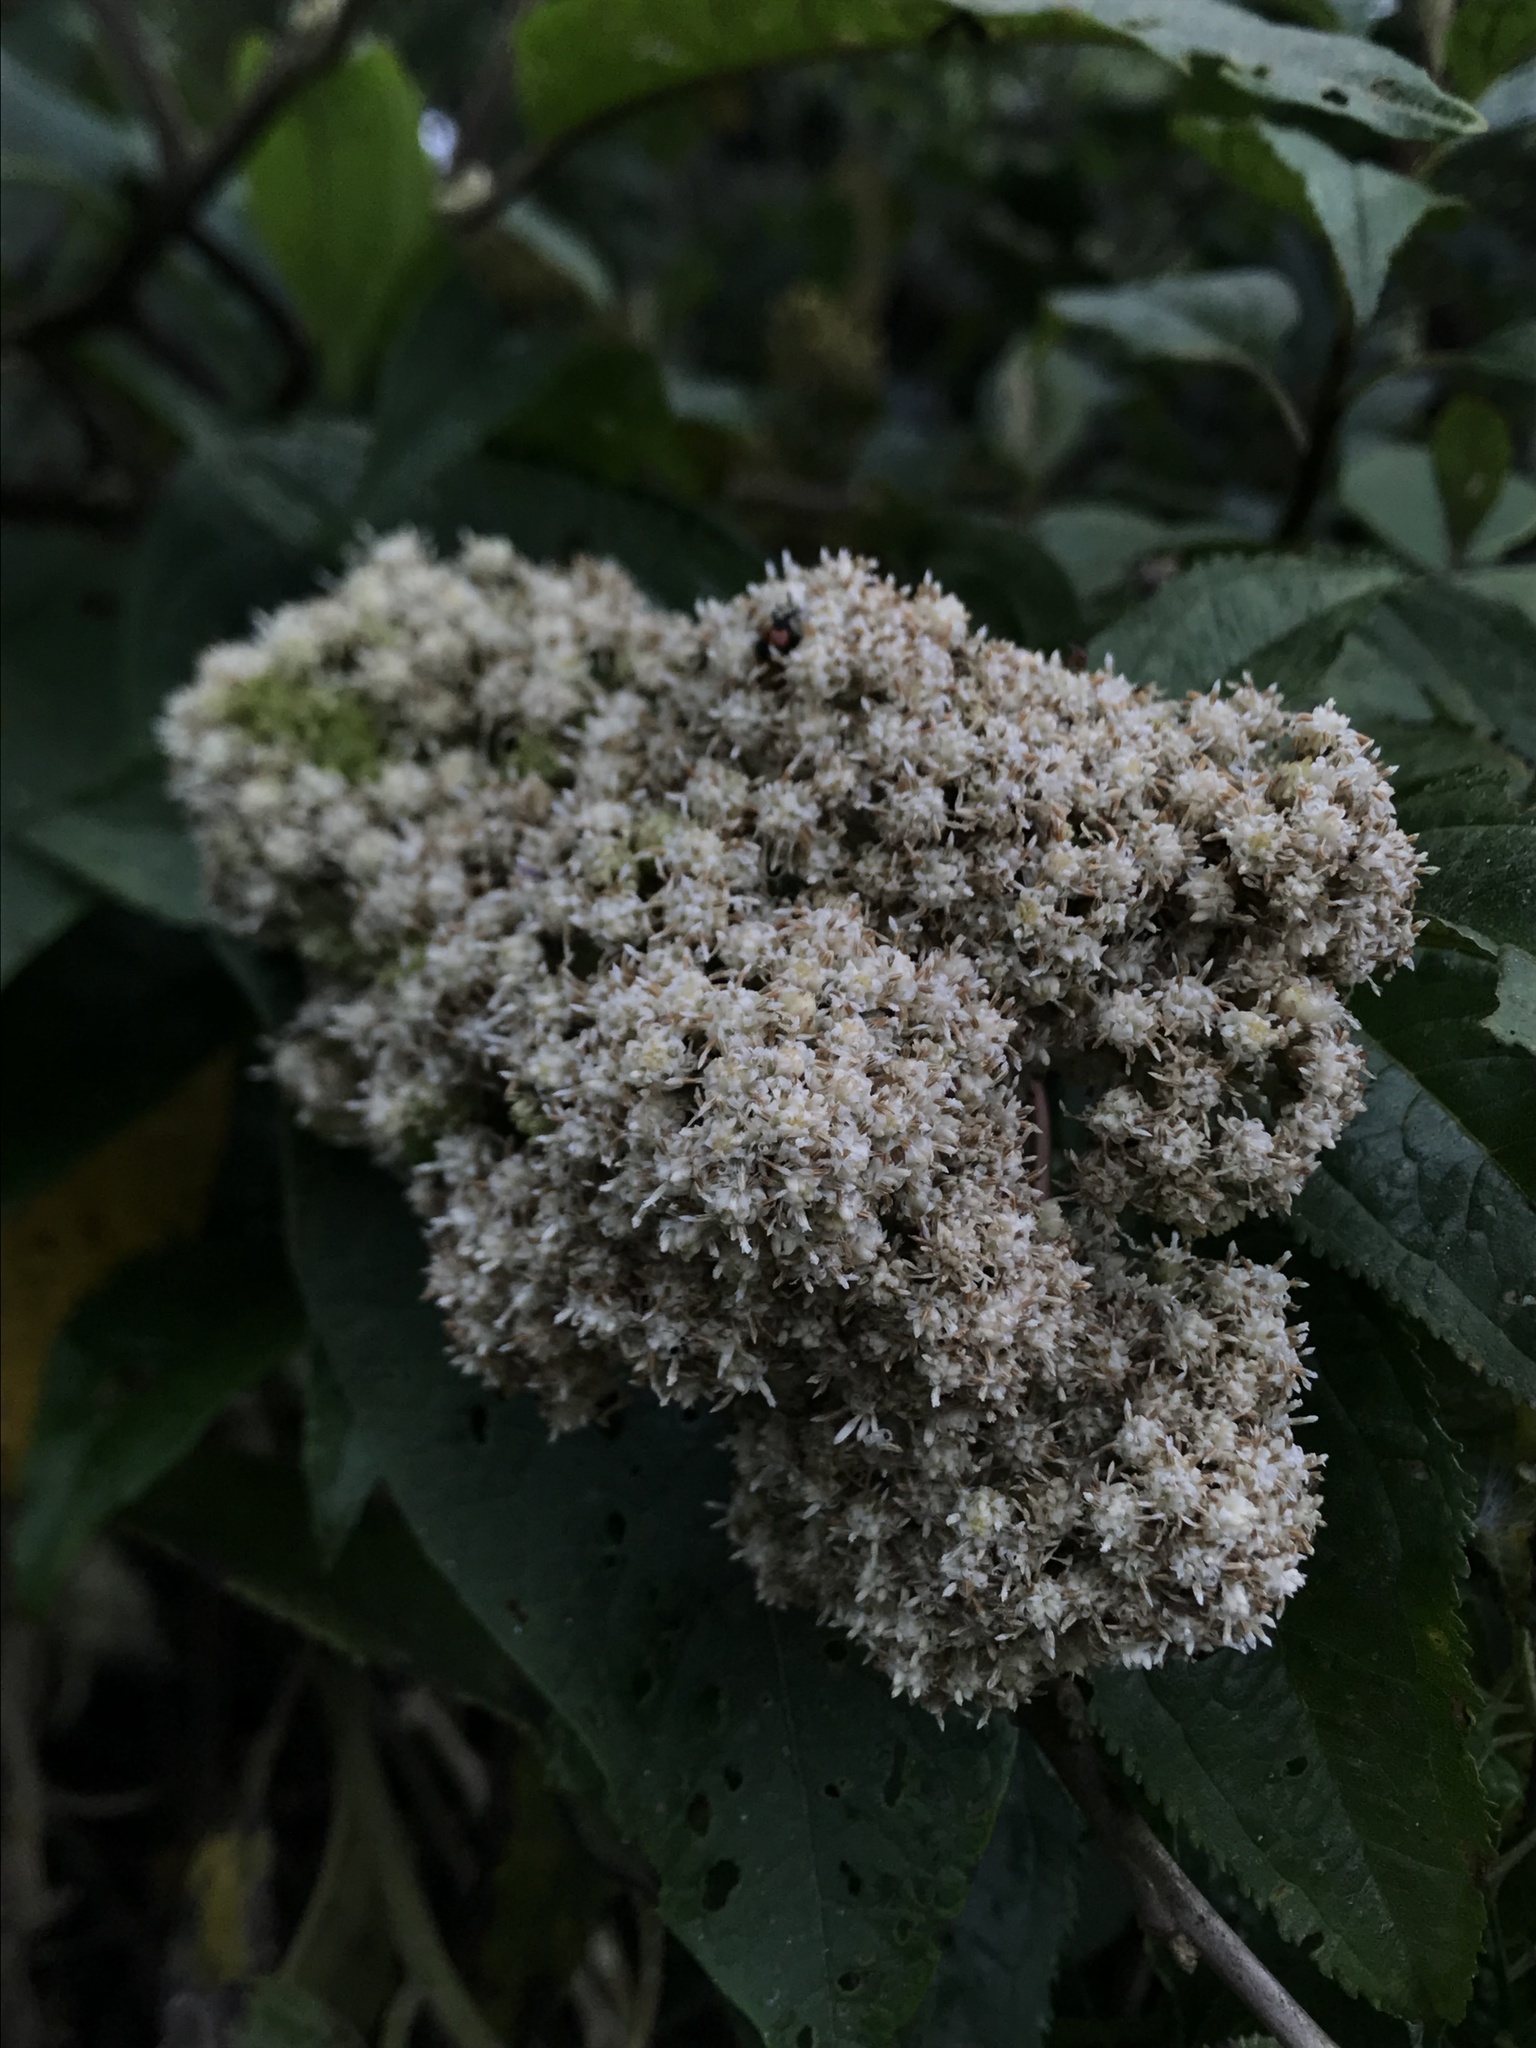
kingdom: Plantae
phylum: Tracheophyta
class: Magnoliopsida
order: Asterales
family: Asteraceae
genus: Baccharis
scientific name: Baccharis latifolia
